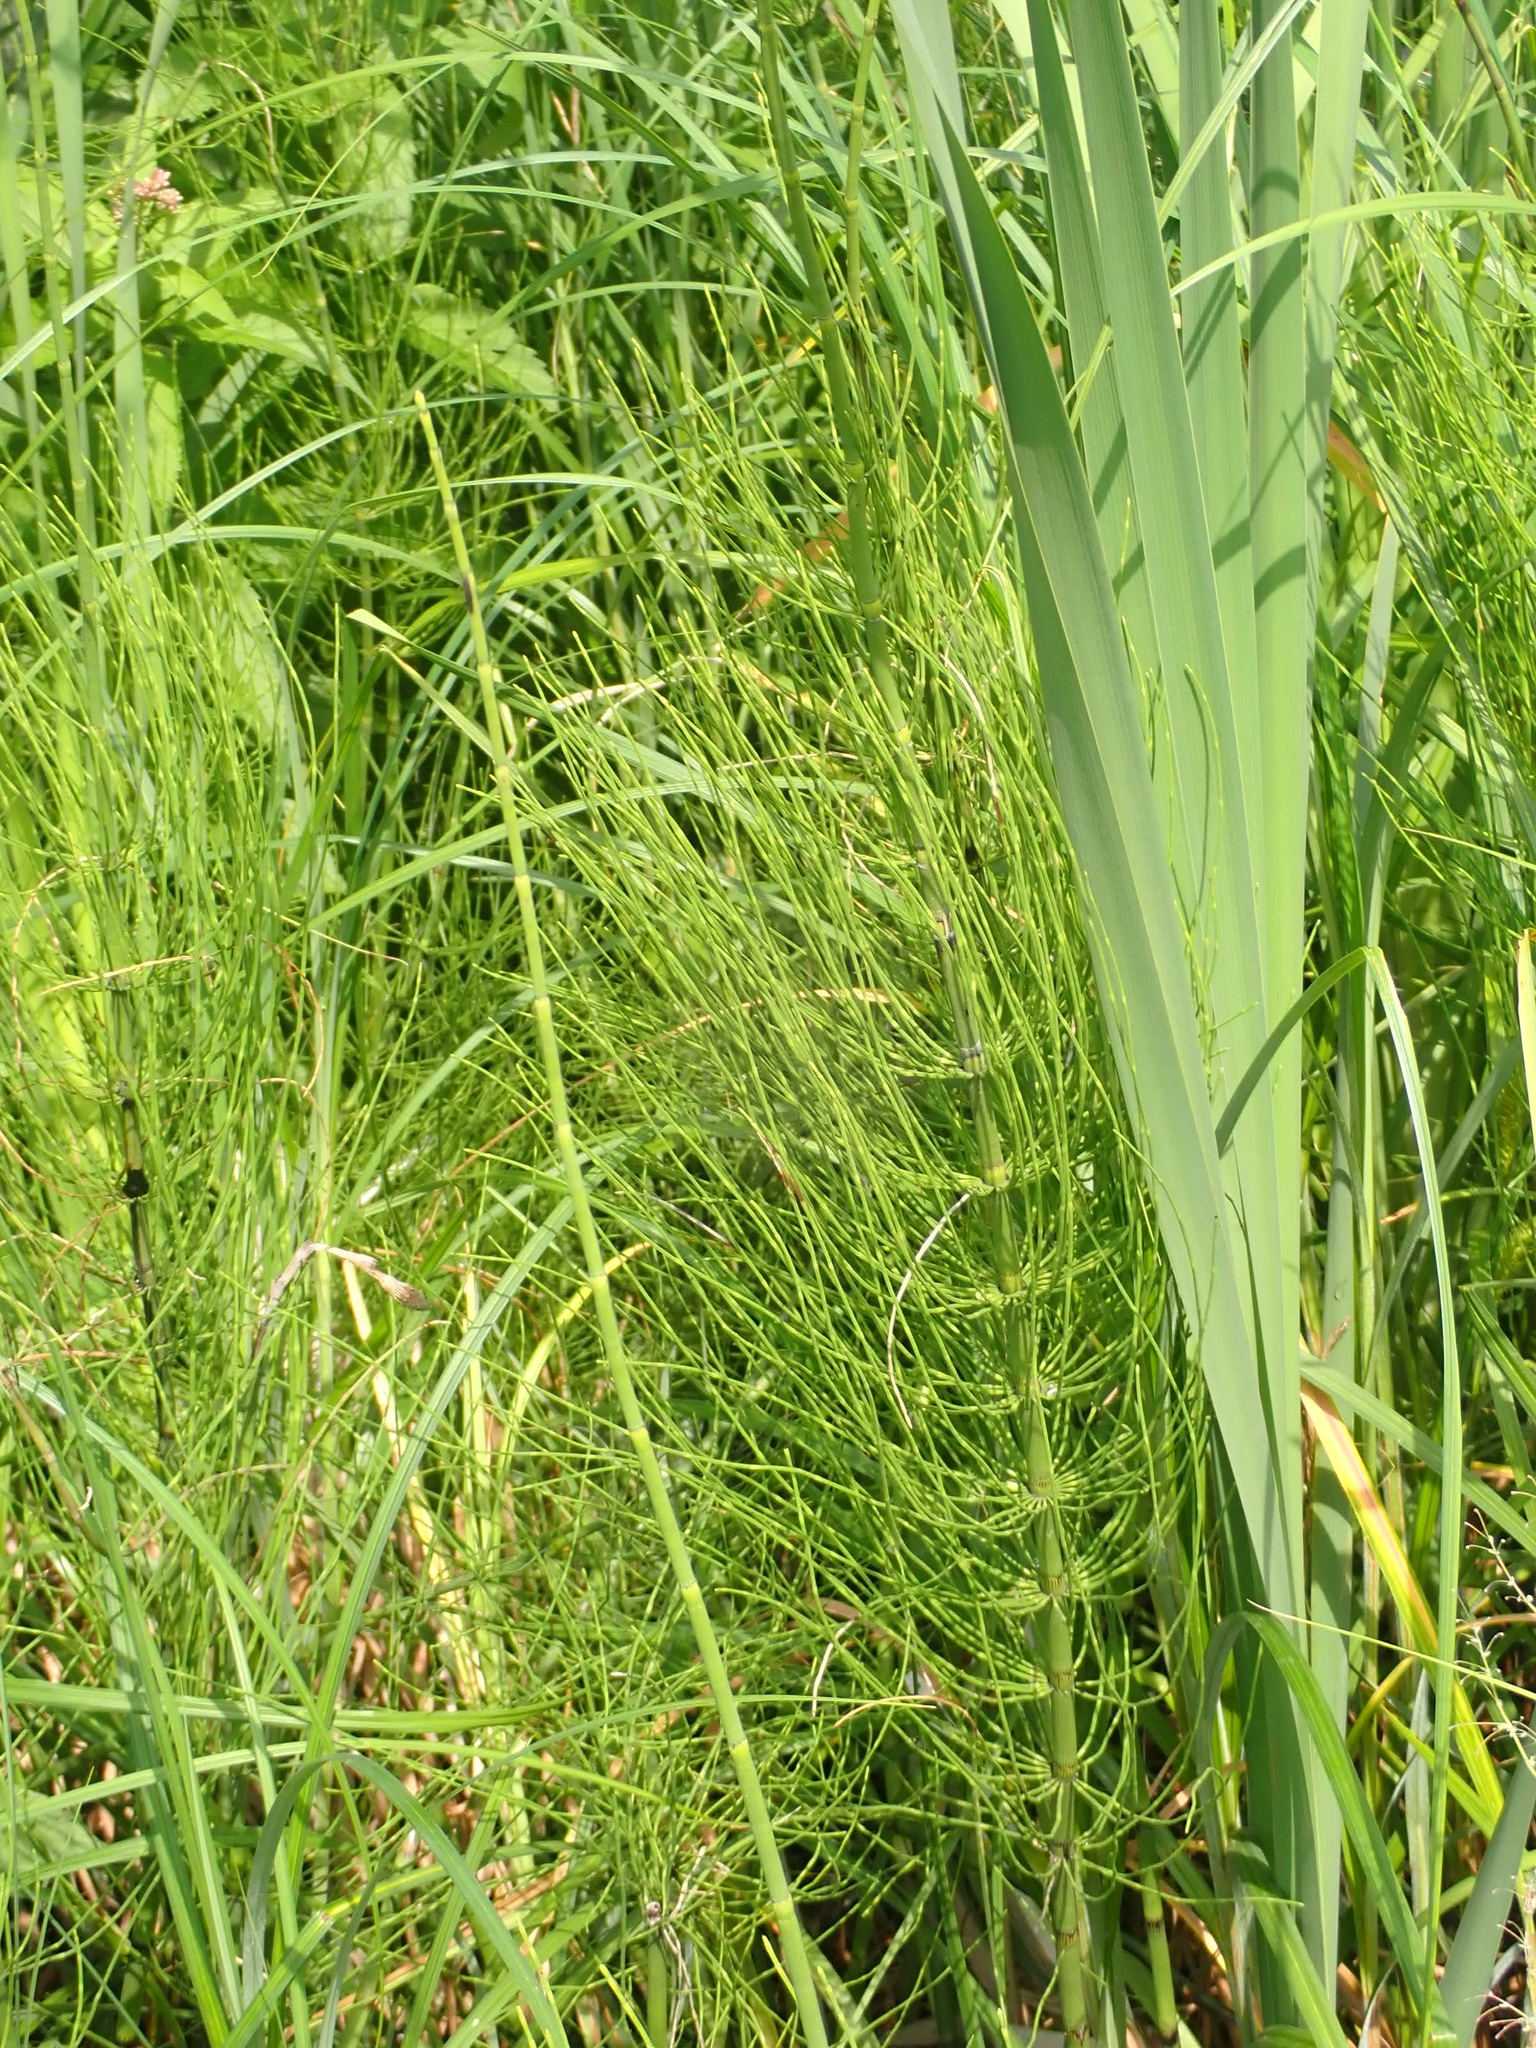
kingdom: Plantae
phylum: Tracheophyta
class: Polypodiopsida
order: Equisetales
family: Equisetaceae
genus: Equisetum
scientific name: Equisetum fluviatile
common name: Water horsetail
